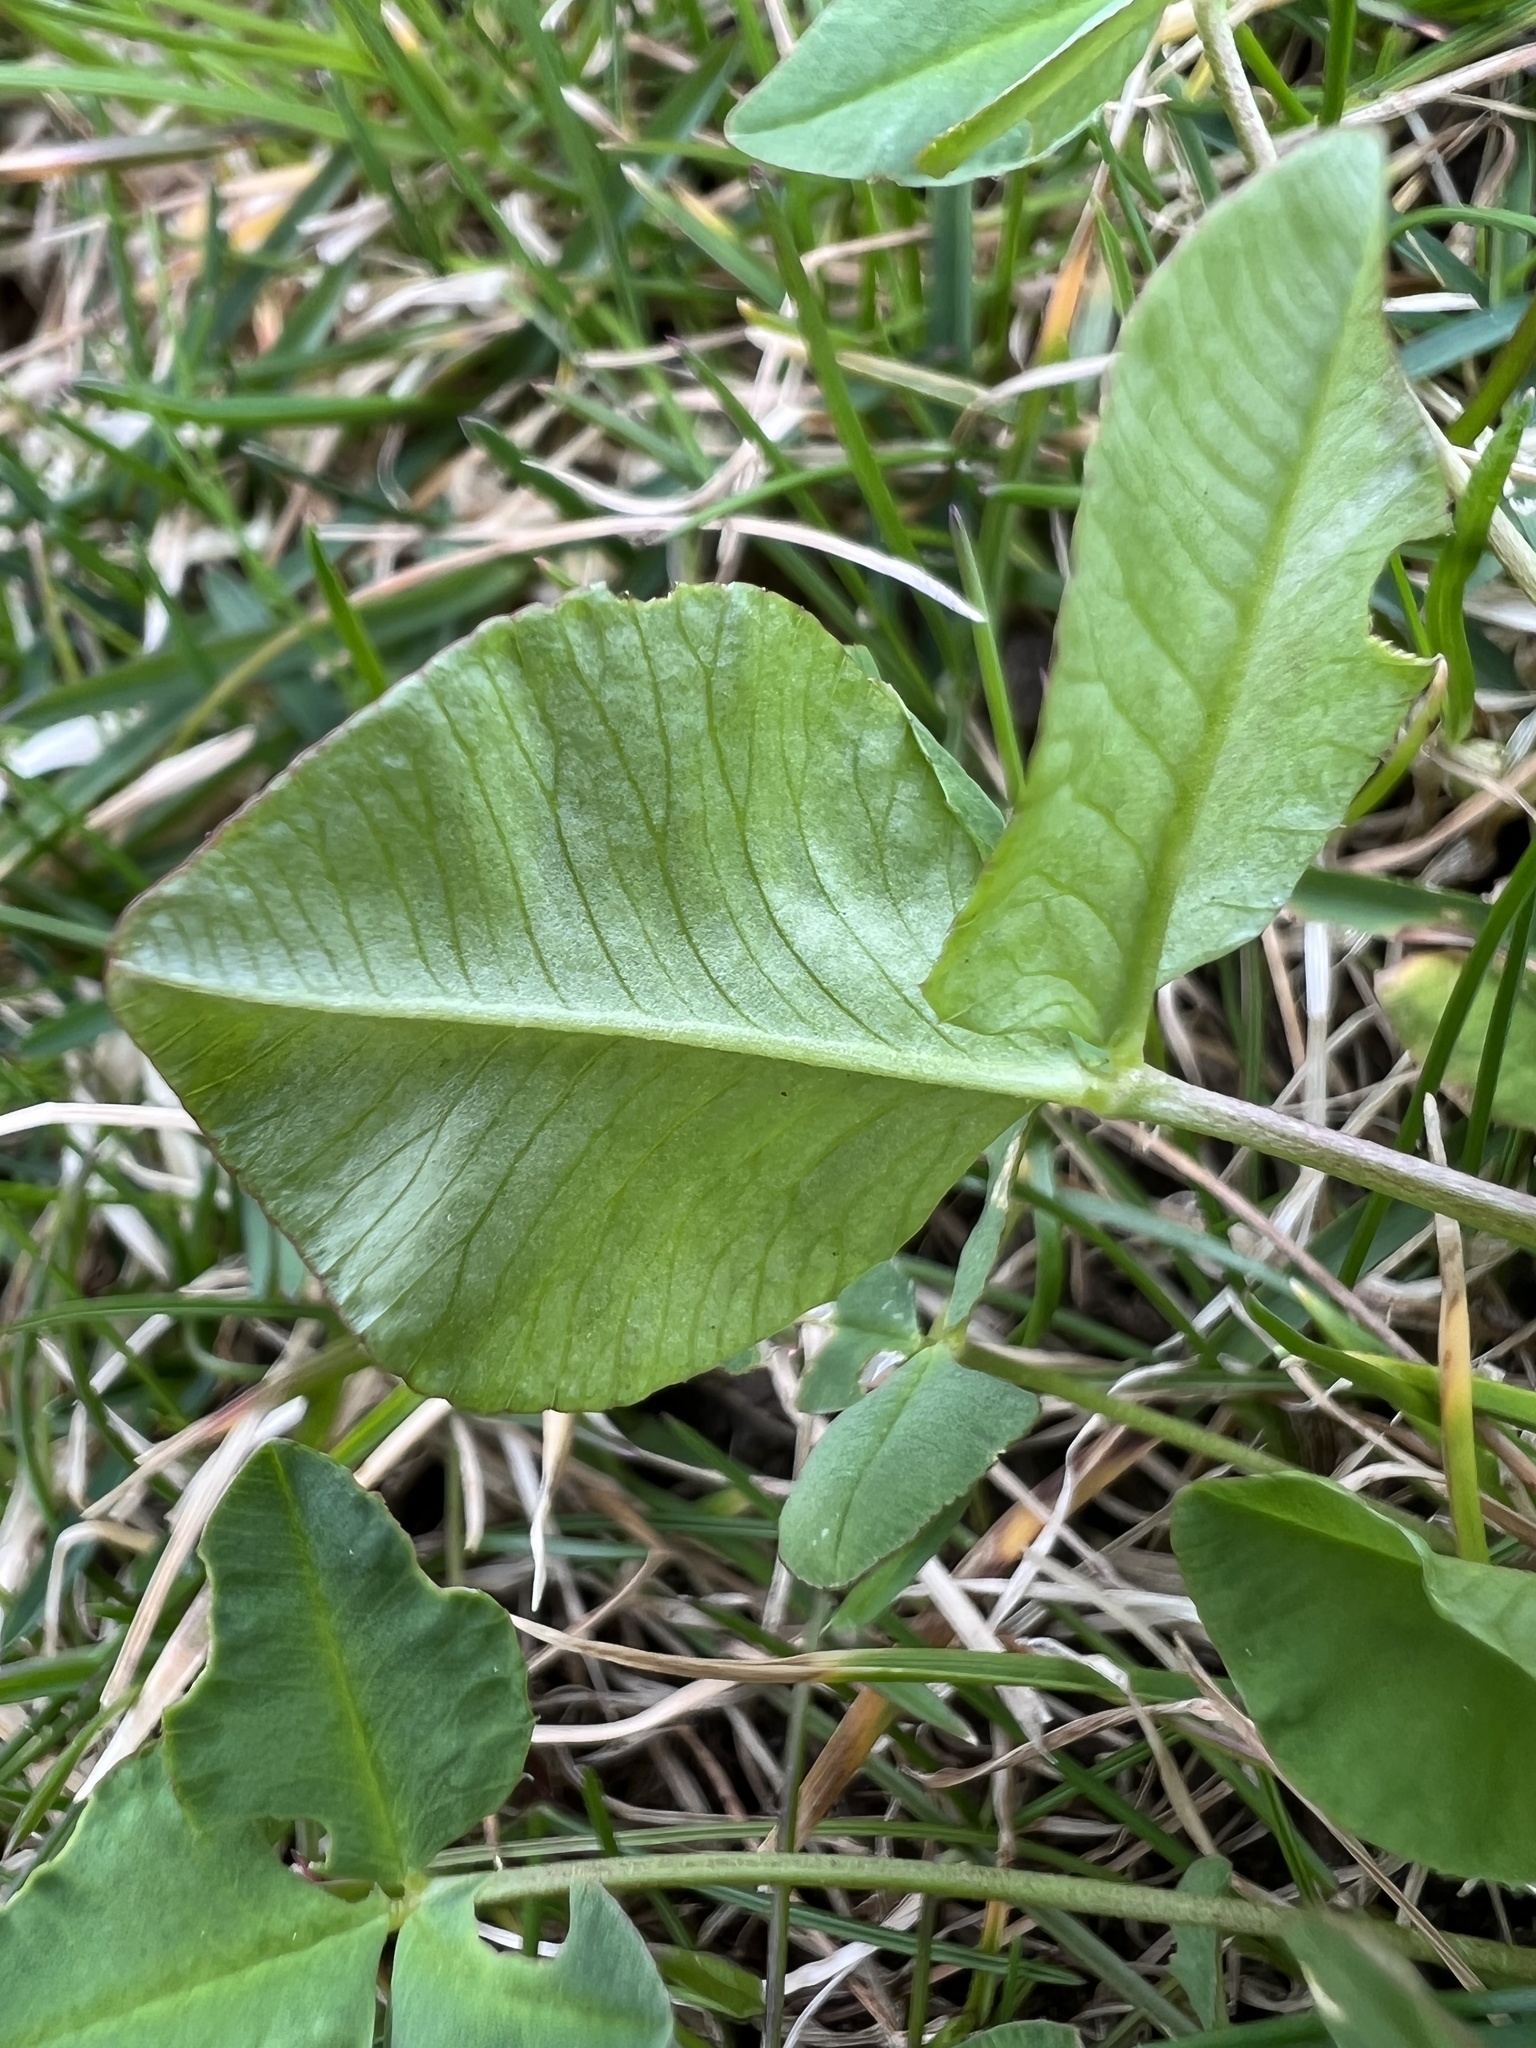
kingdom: Plantae
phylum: Tracheophyta
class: Magnoliopsida
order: Fabales
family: Fabaceae
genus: Trifolium
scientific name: Trifolium hybridum
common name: Alsike clover
